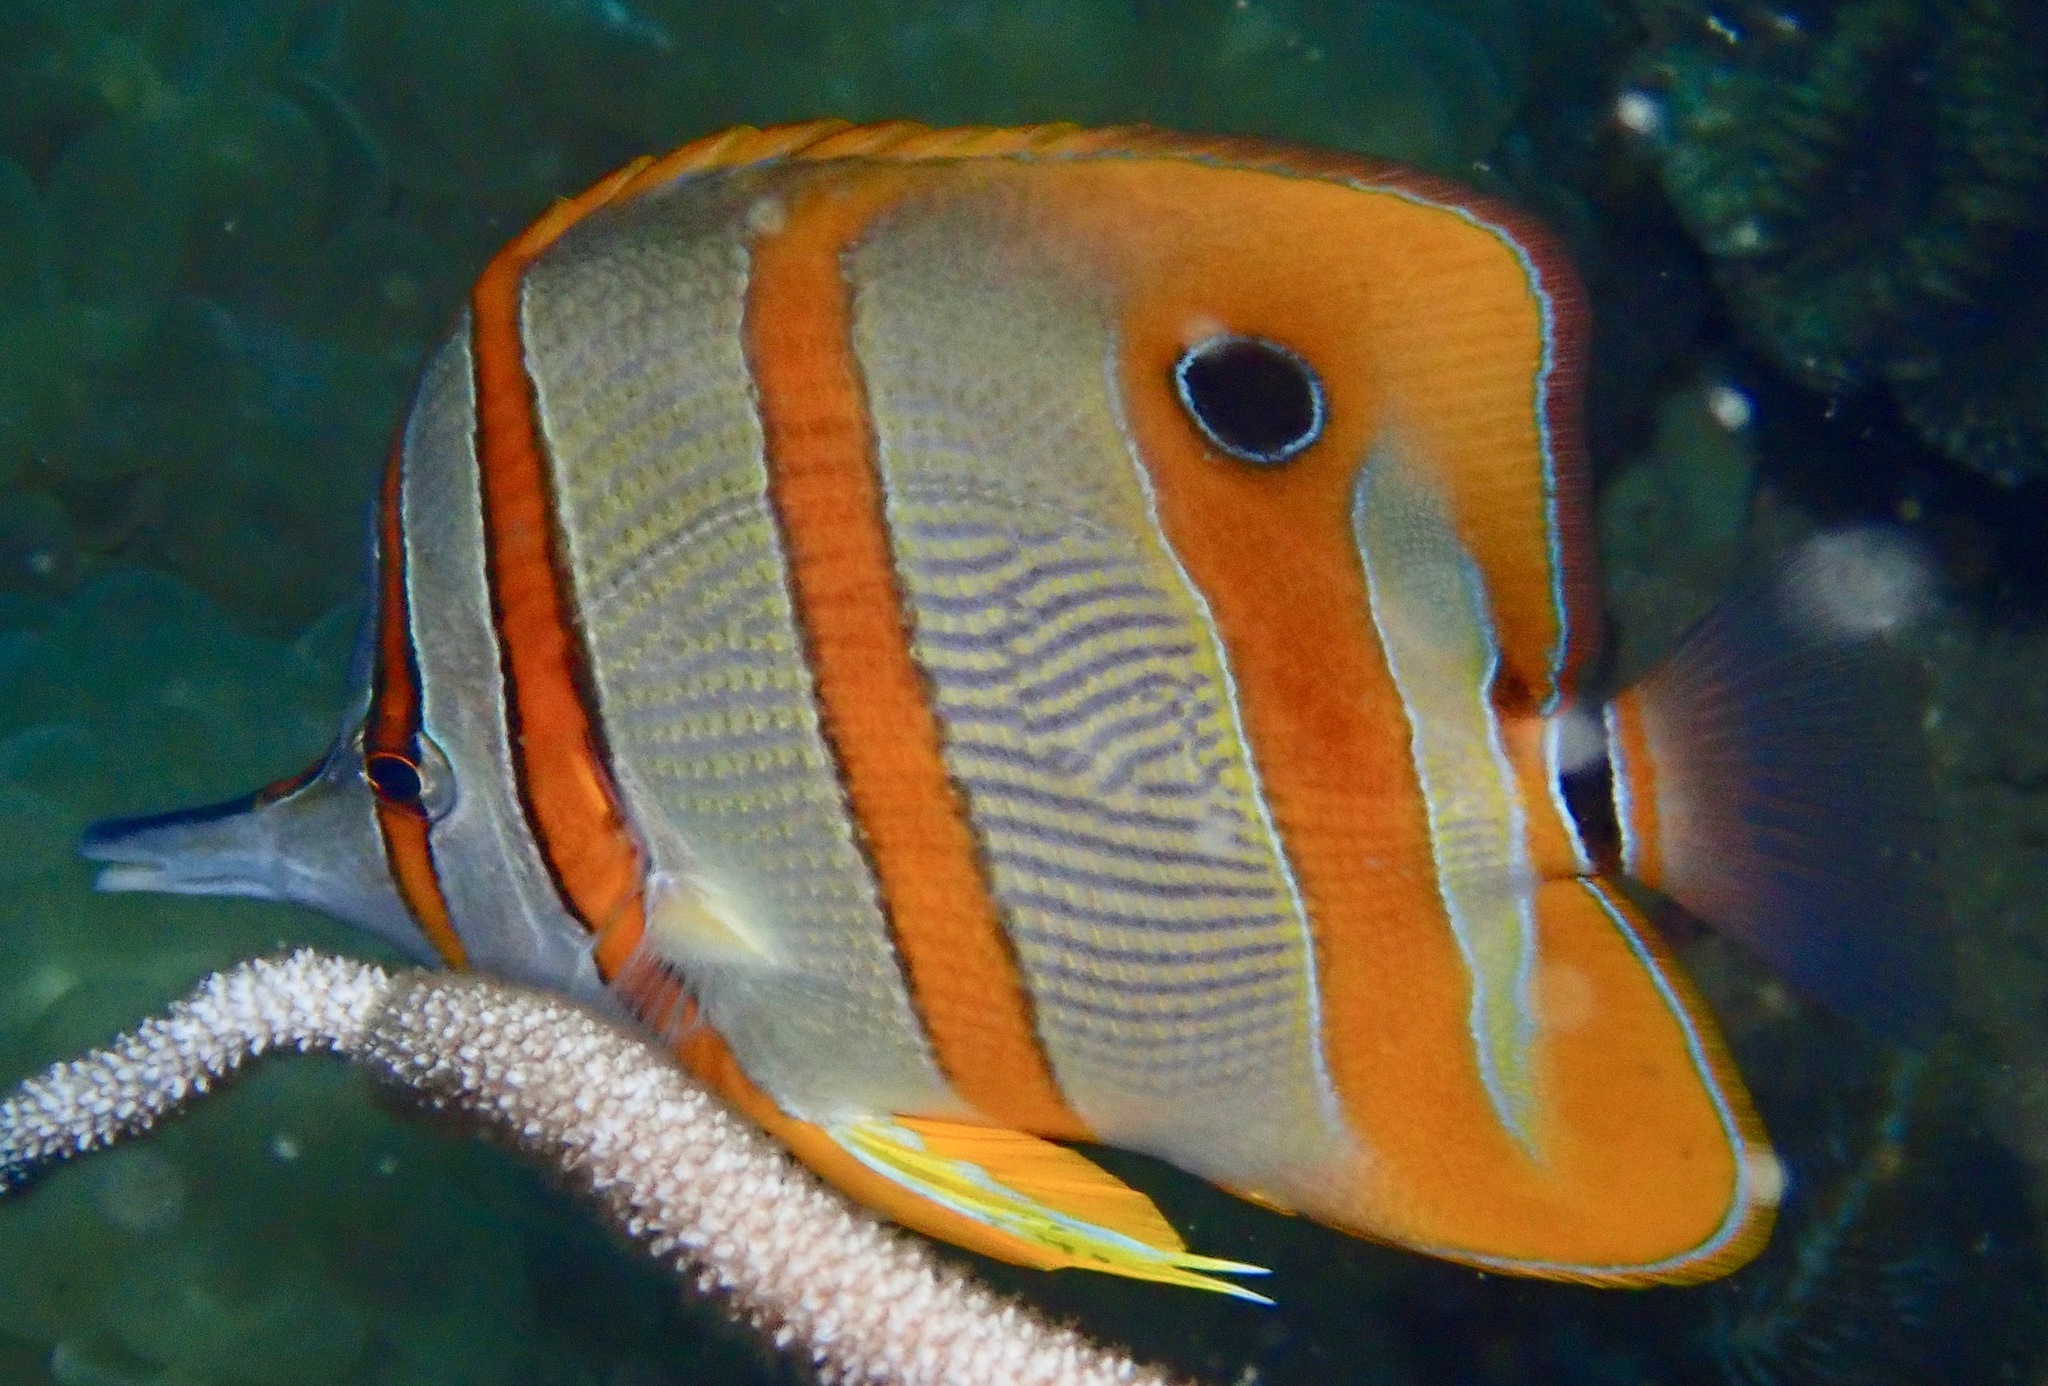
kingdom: Animalia
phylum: Chordata
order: Perciformes
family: Chaetodontidae
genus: Chelmon
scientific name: Chelmon rostratus
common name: Beaked butterflyfish
